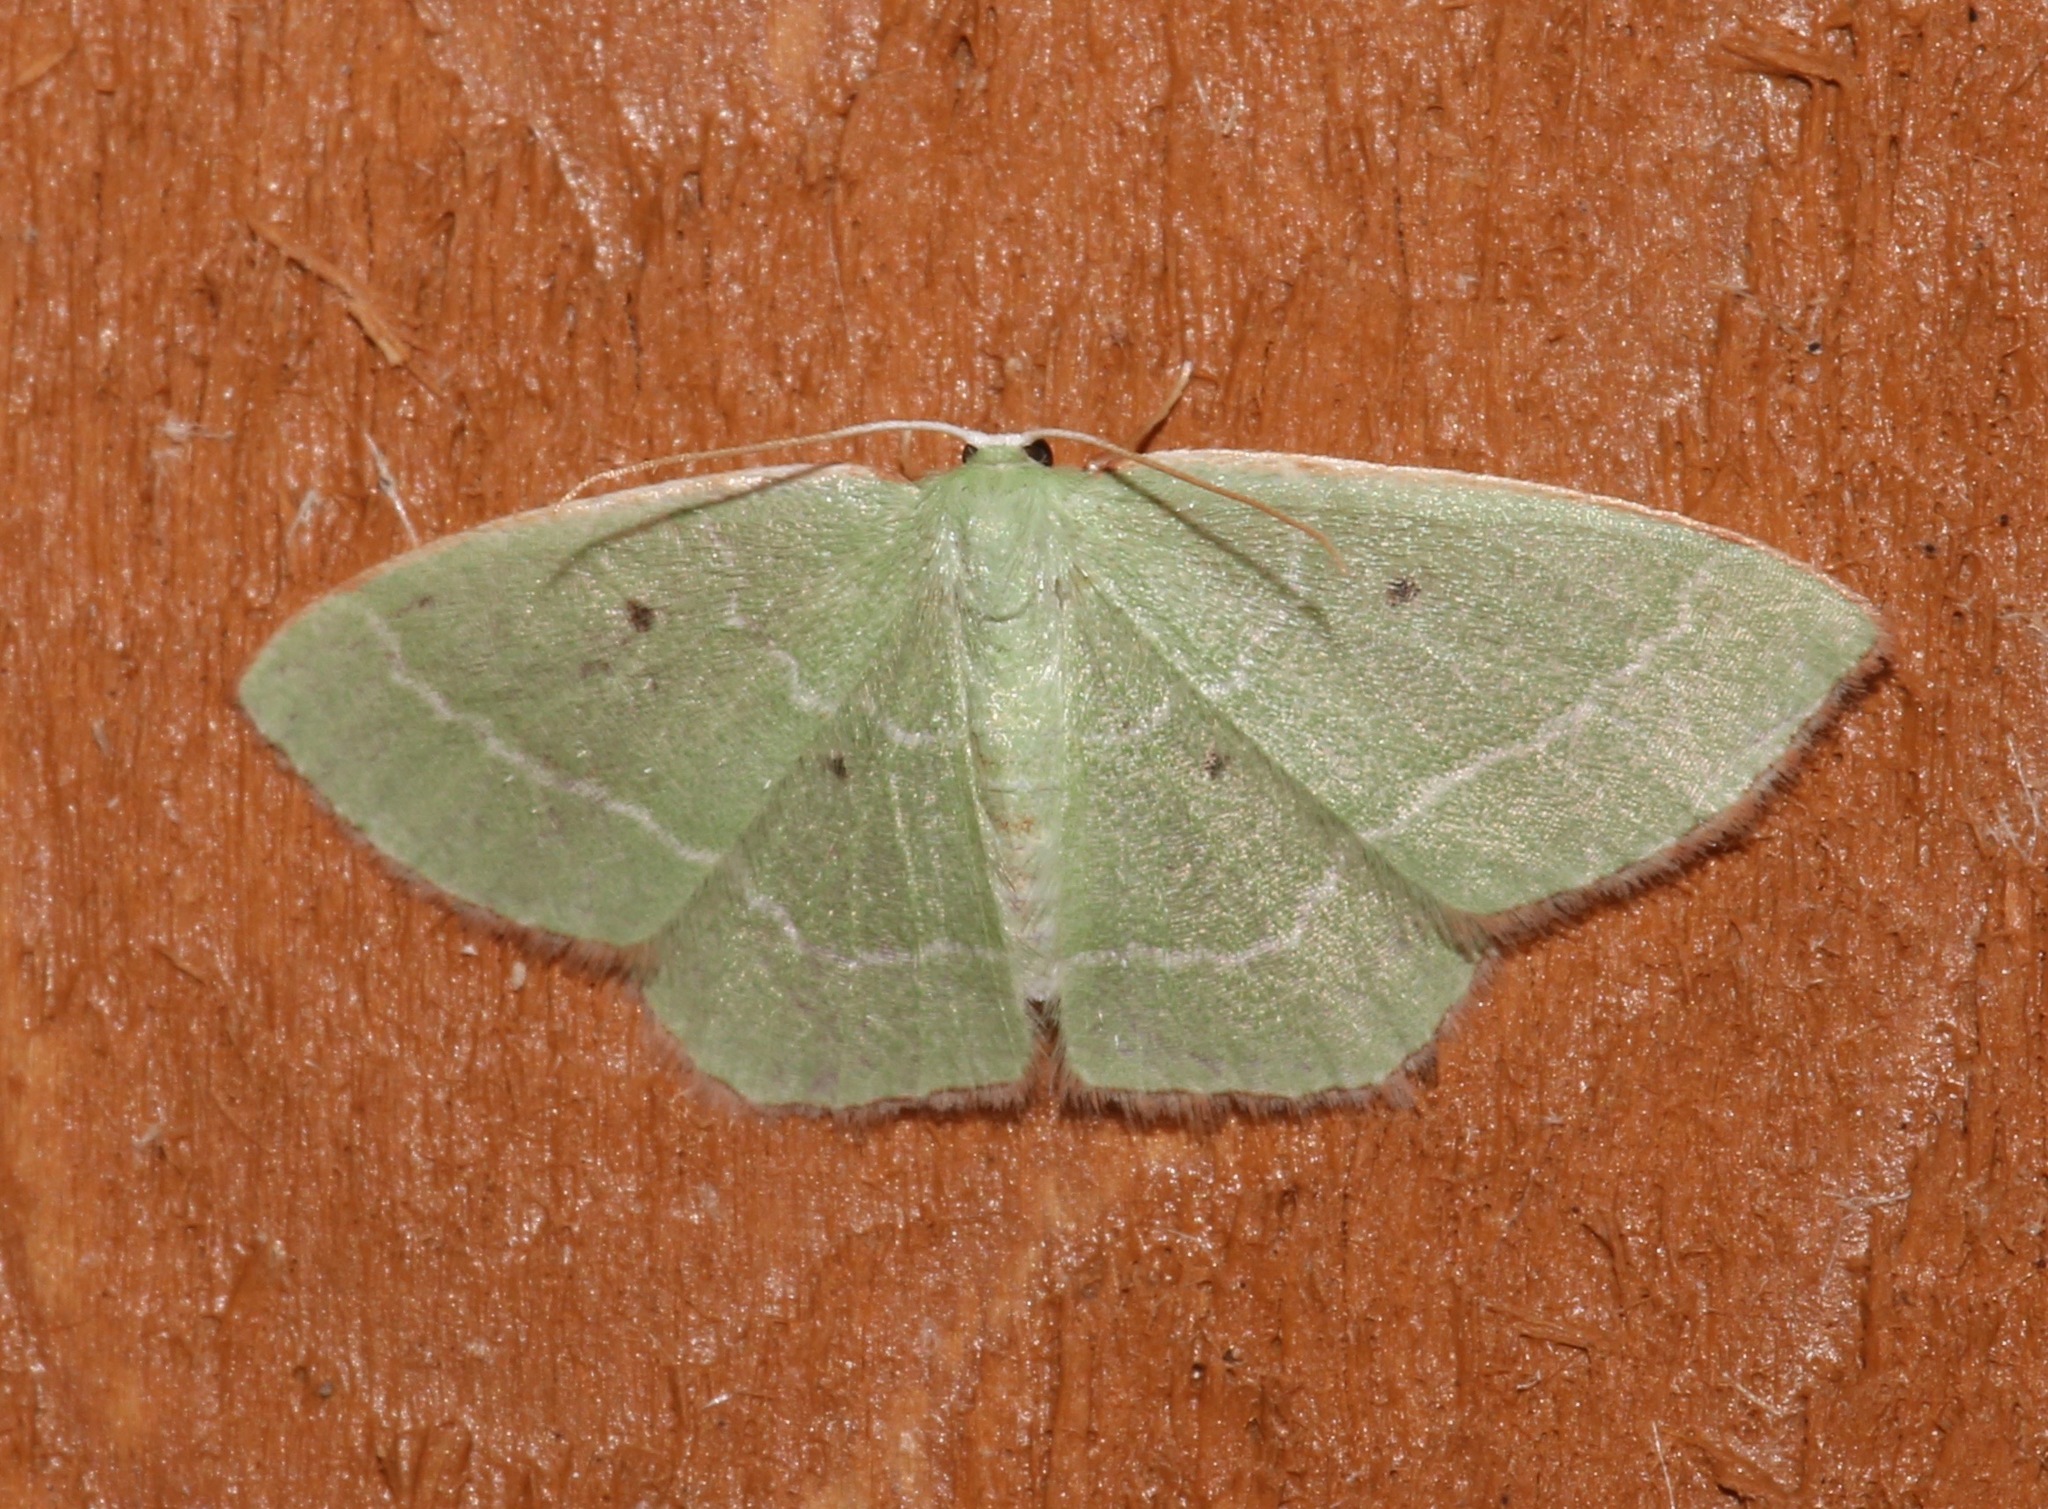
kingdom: Animalia
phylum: Arthropoda
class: Insecta
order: Lepidoptera
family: Geometridae
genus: Nemoria
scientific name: Nemoria elfa
